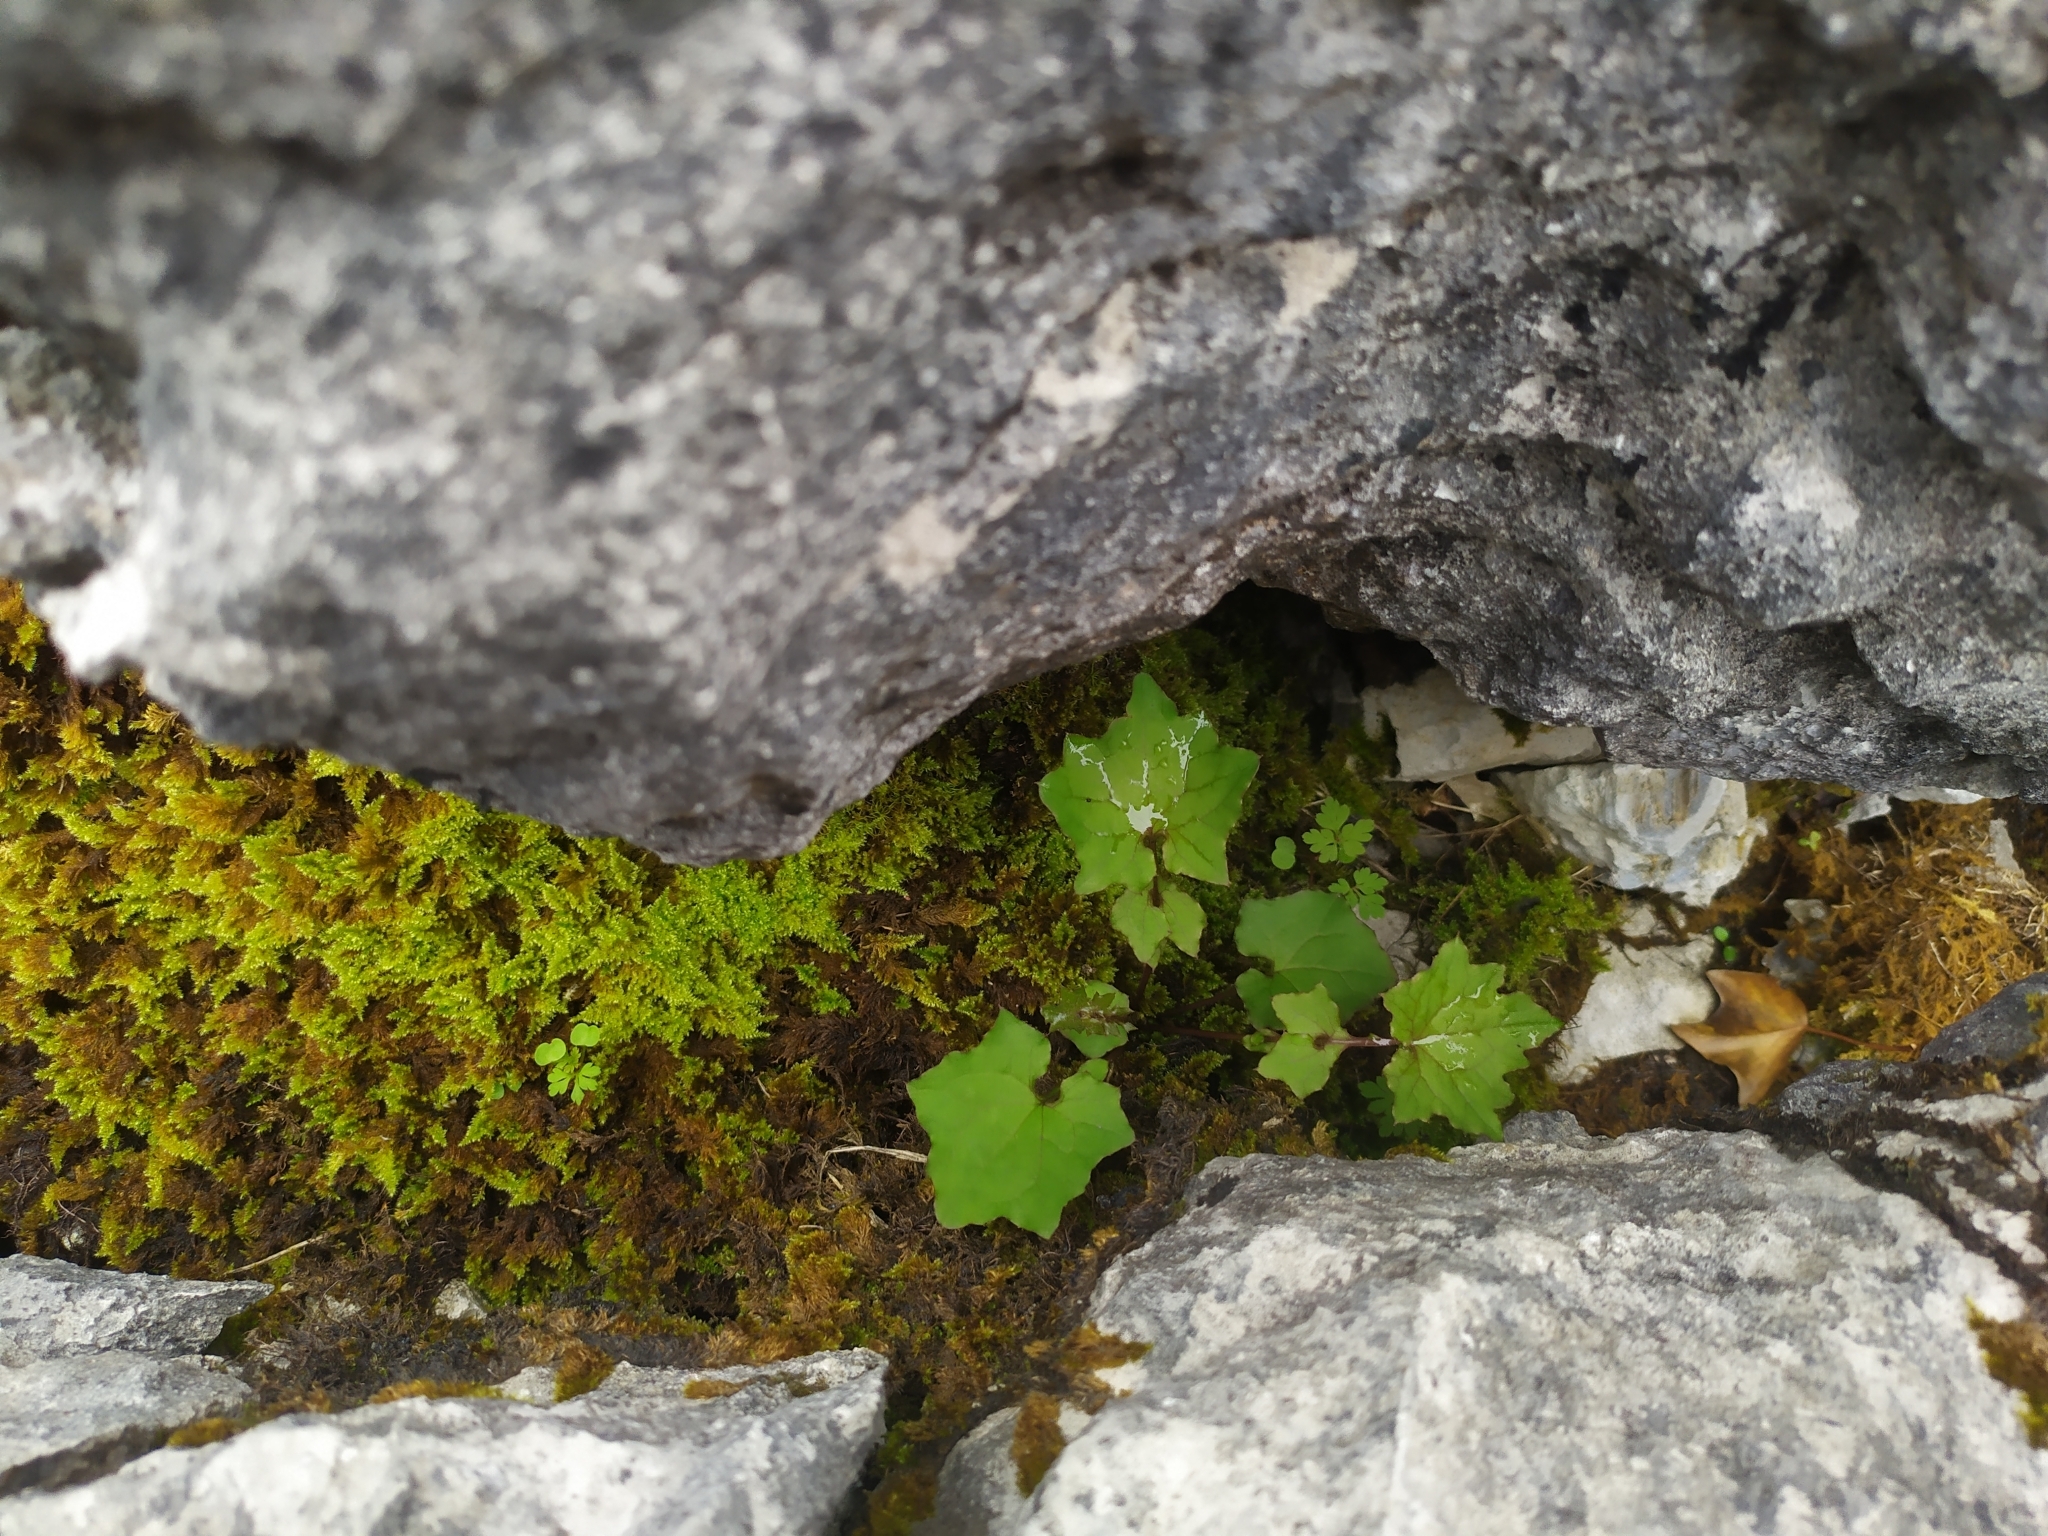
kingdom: Plantae
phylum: Tracheophyta
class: Magnoliopsida
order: Asterales
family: Asteraceae
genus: Mycelis
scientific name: Mycelis muralis
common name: Wall lettuce
